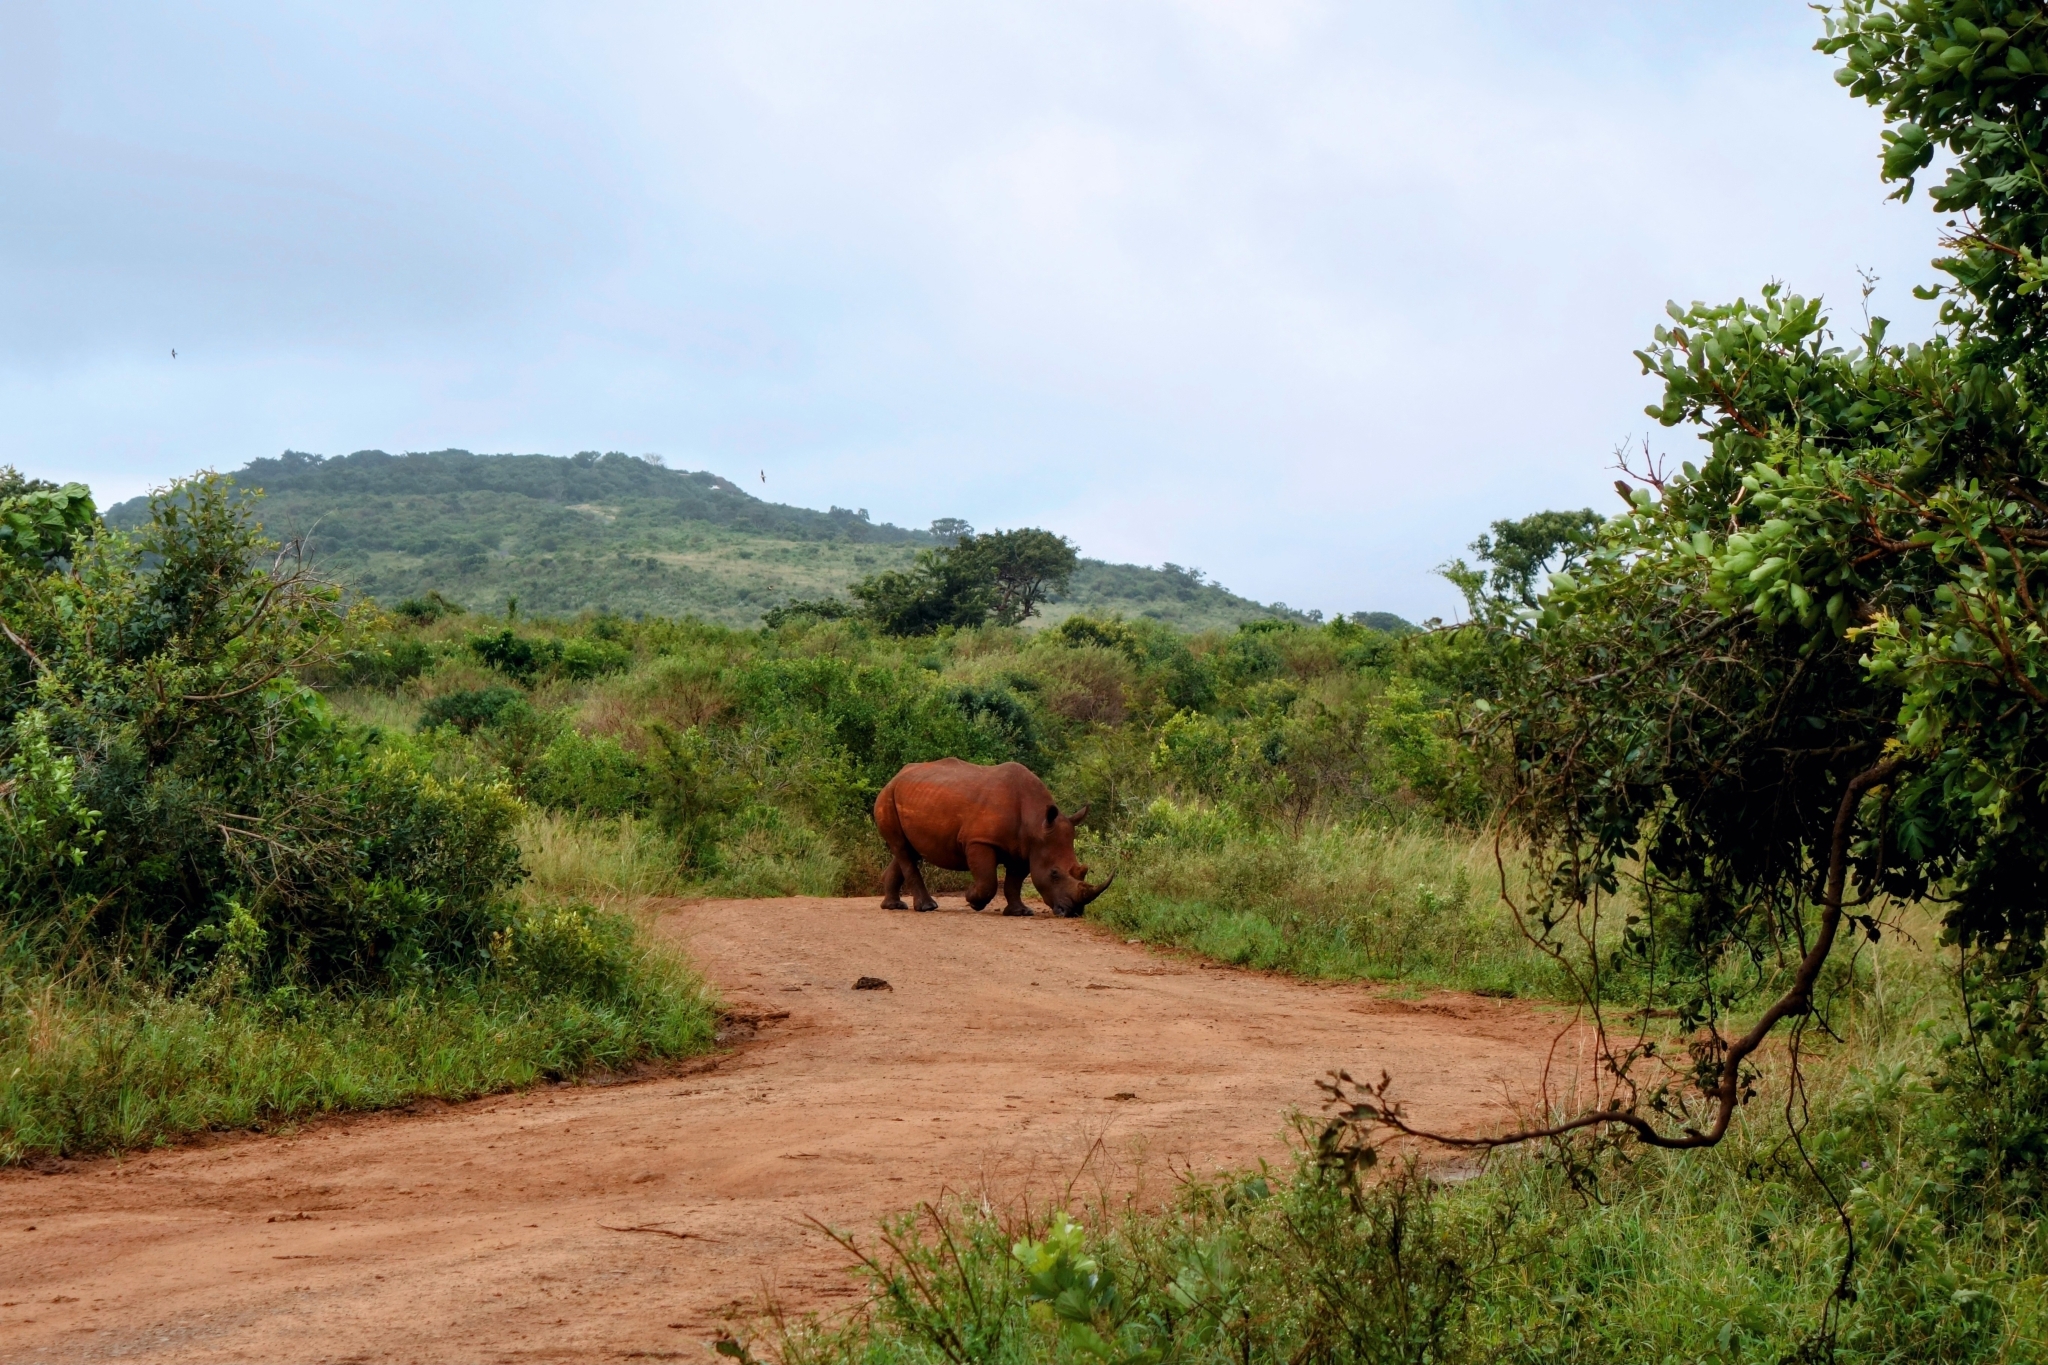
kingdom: Animalia
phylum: Chordata
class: Mammalia
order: Perissodactyla
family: Rhinocerotidae
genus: Ceratotherium
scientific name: Ceratotherium simum
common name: White rhinoceros
